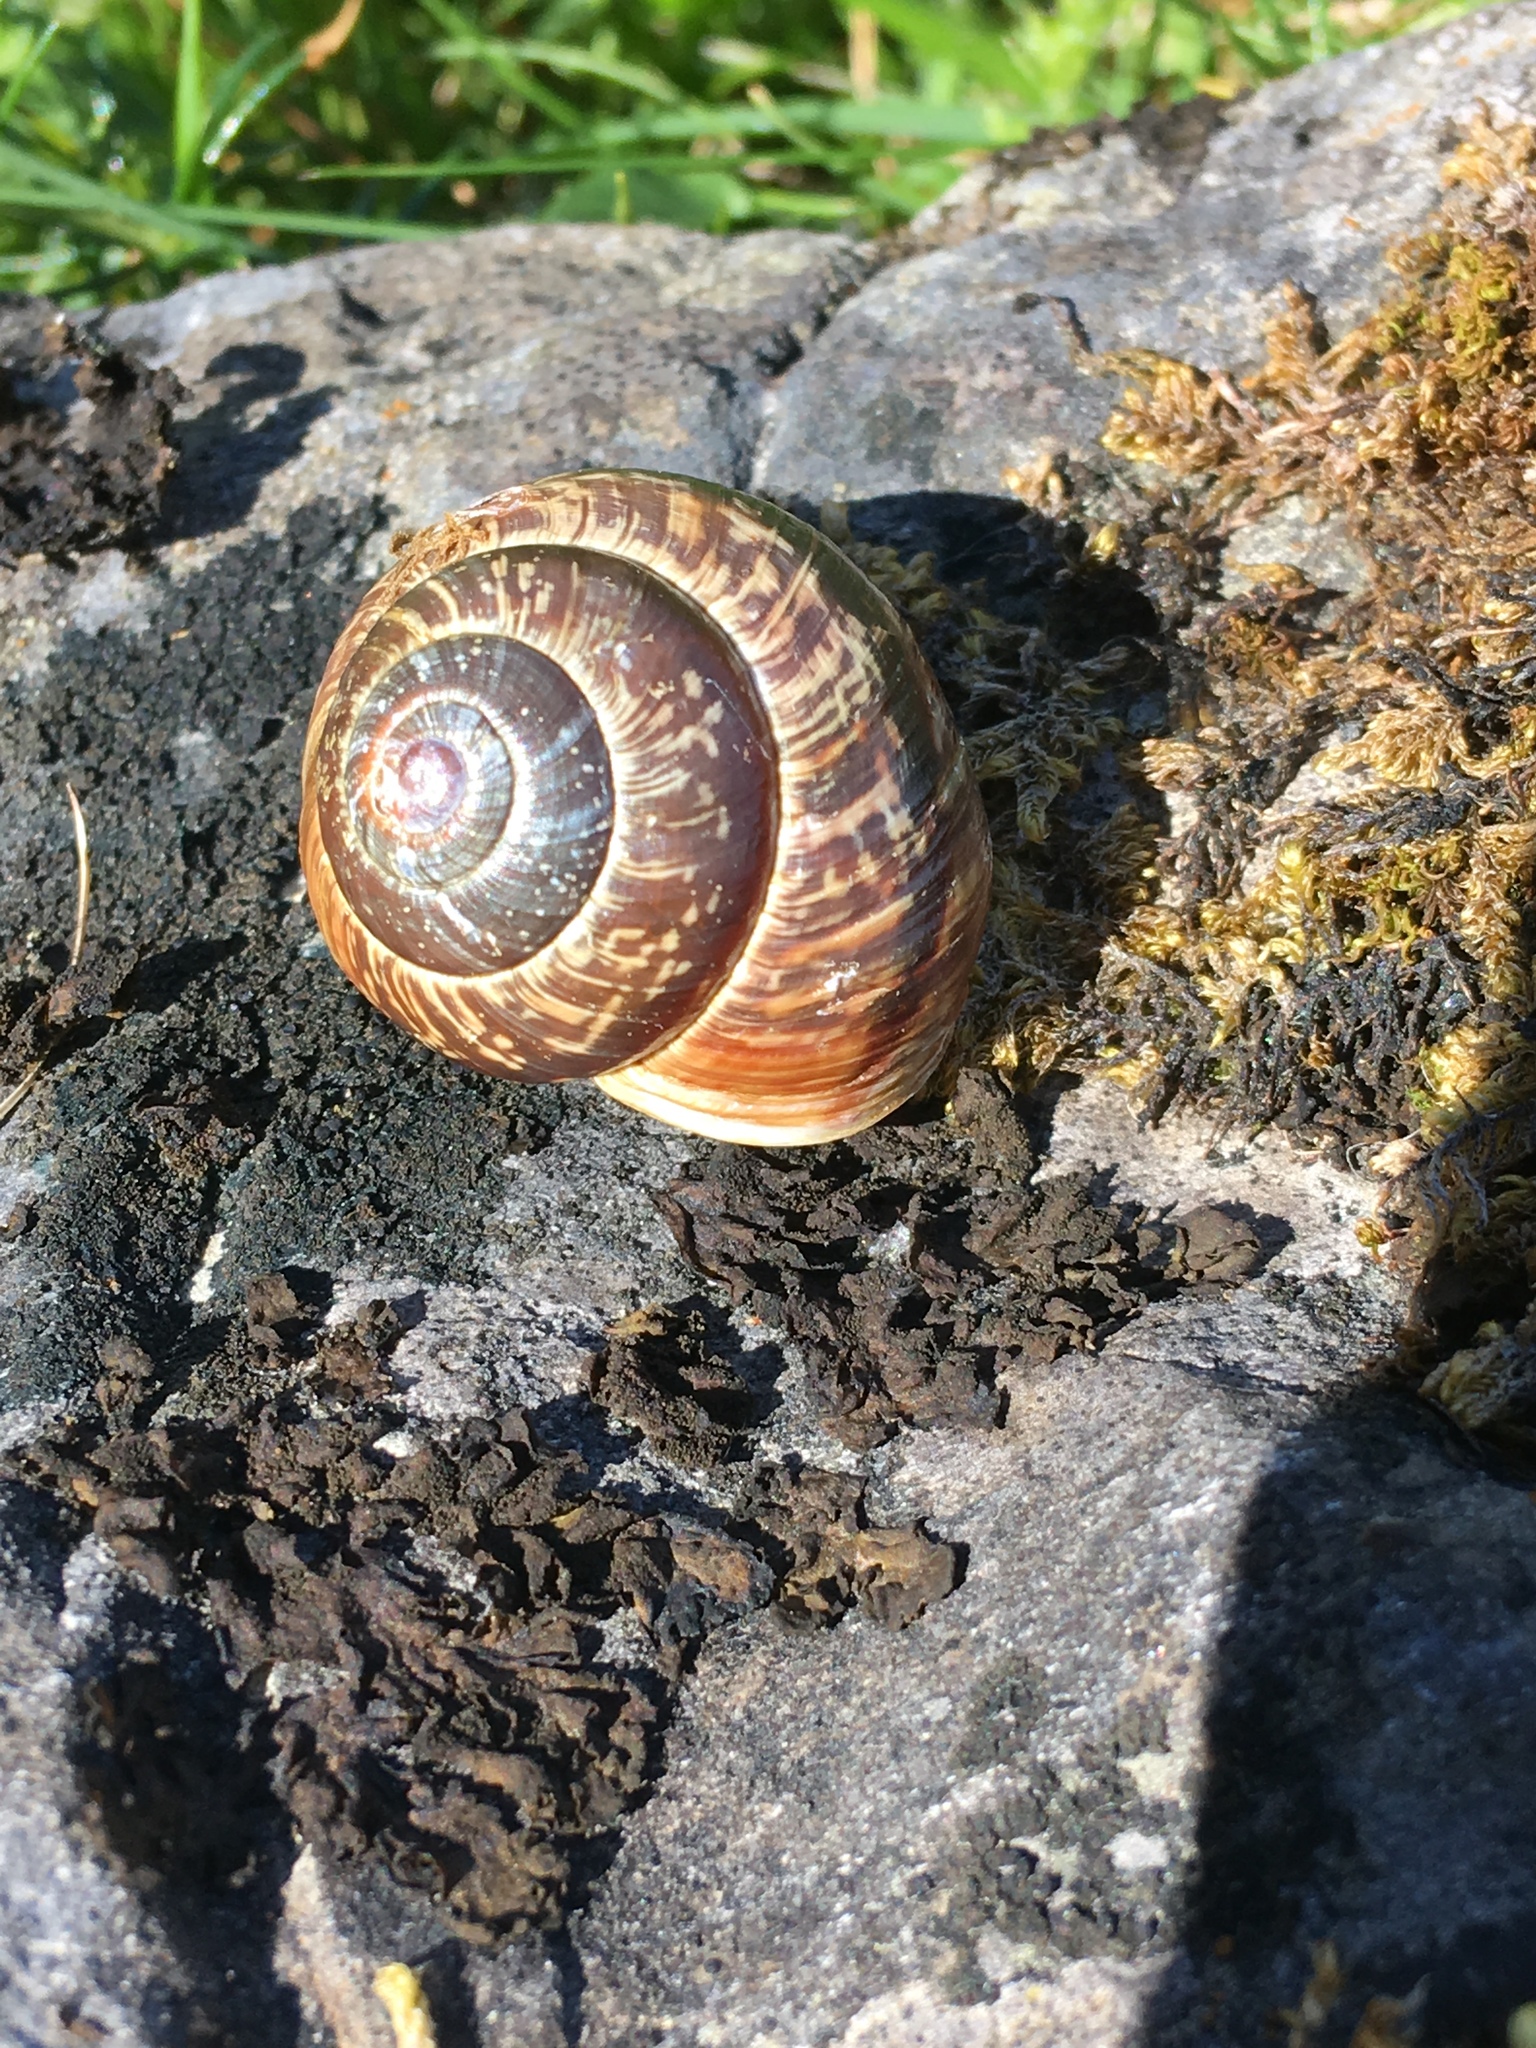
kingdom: Animalia
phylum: Mollusca
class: Gastropoda
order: Stylommatophora
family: Helicidae
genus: Arianta
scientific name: Arianta arbustorum
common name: Copse snail
